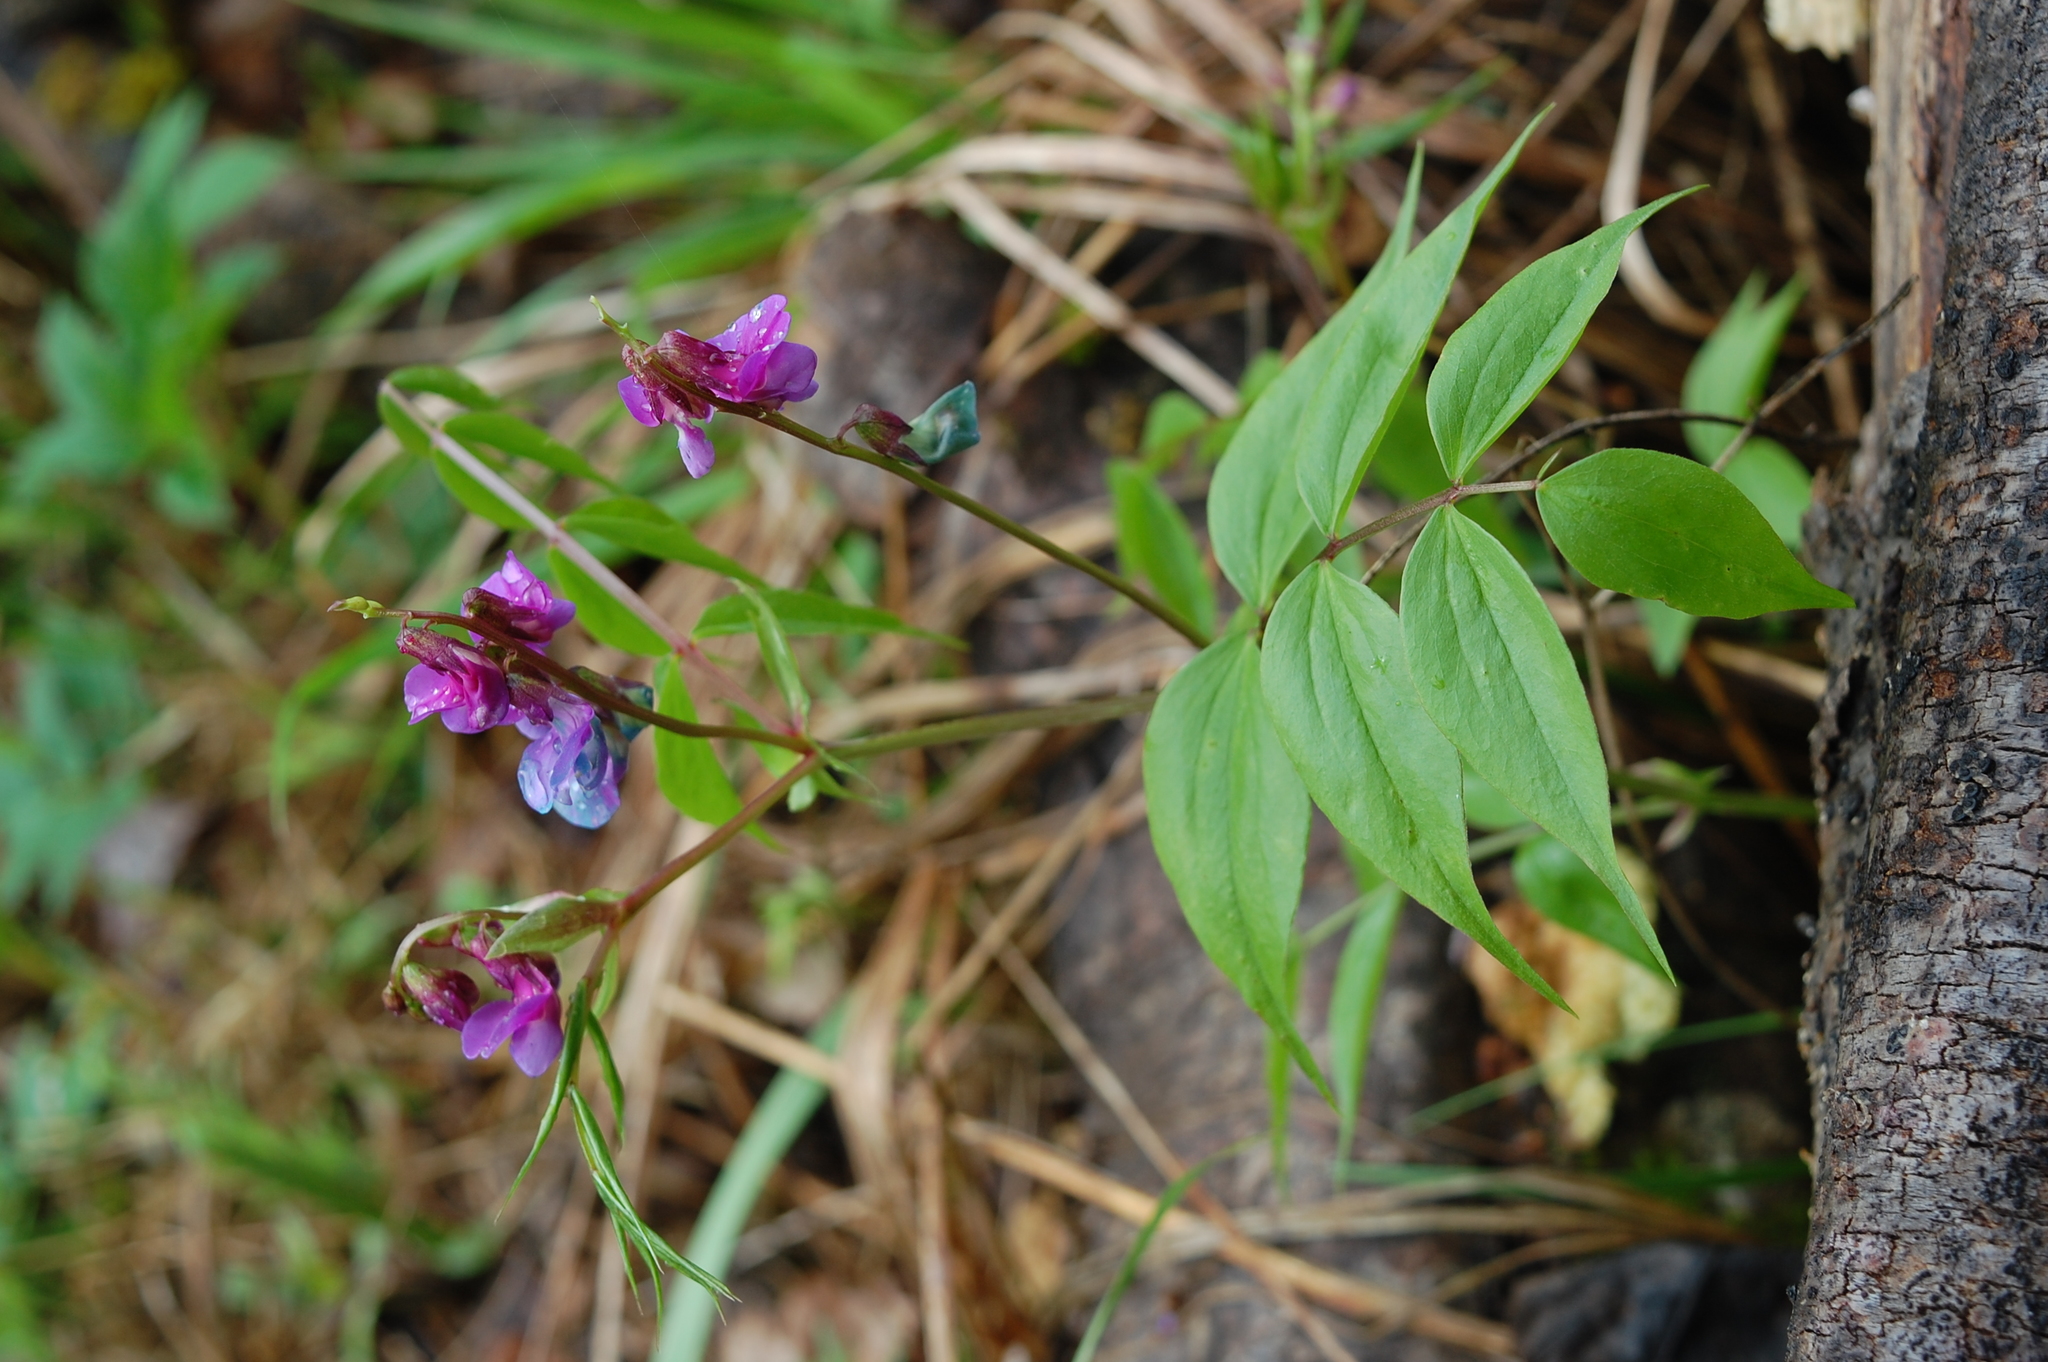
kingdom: Plantae
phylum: Tracheophyta
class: Magnoliopsida
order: Fabales
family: Fabaceae
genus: Lathyrus
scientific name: Lathyrus vernus
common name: Spring pea
